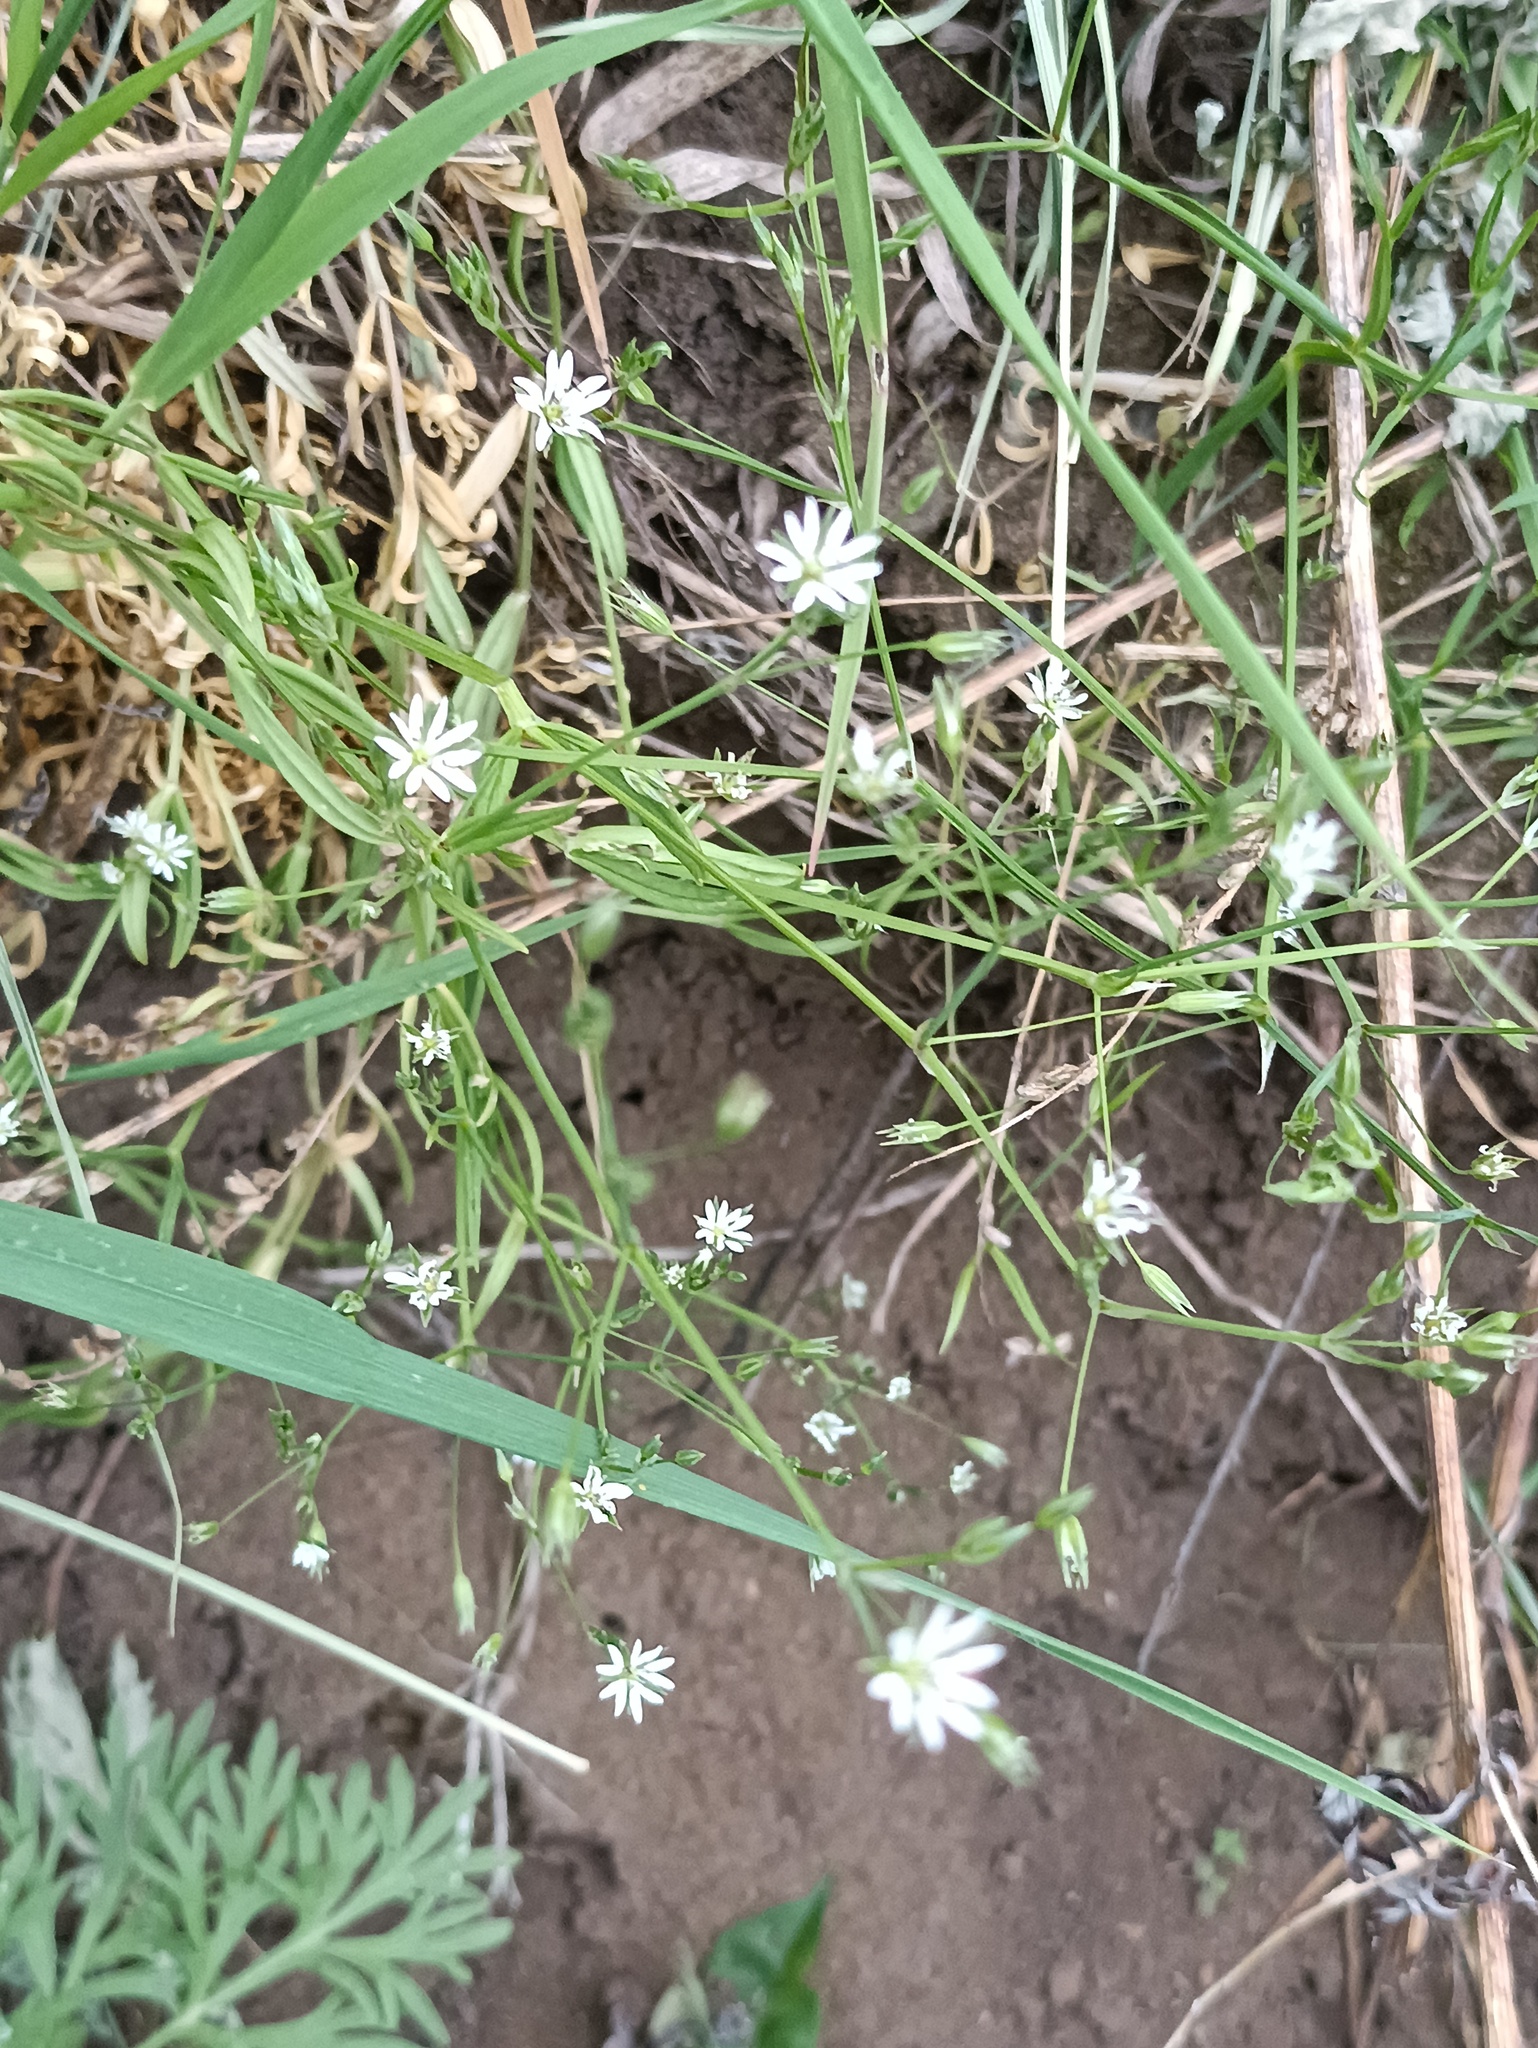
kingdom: Plantae
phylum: Tracheophyta
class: Magnoliopsida
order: Caryophyllales
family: Caryophyllaceae
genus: Stellaria
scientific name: Stellaria graminea
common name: Grass-like starwort
